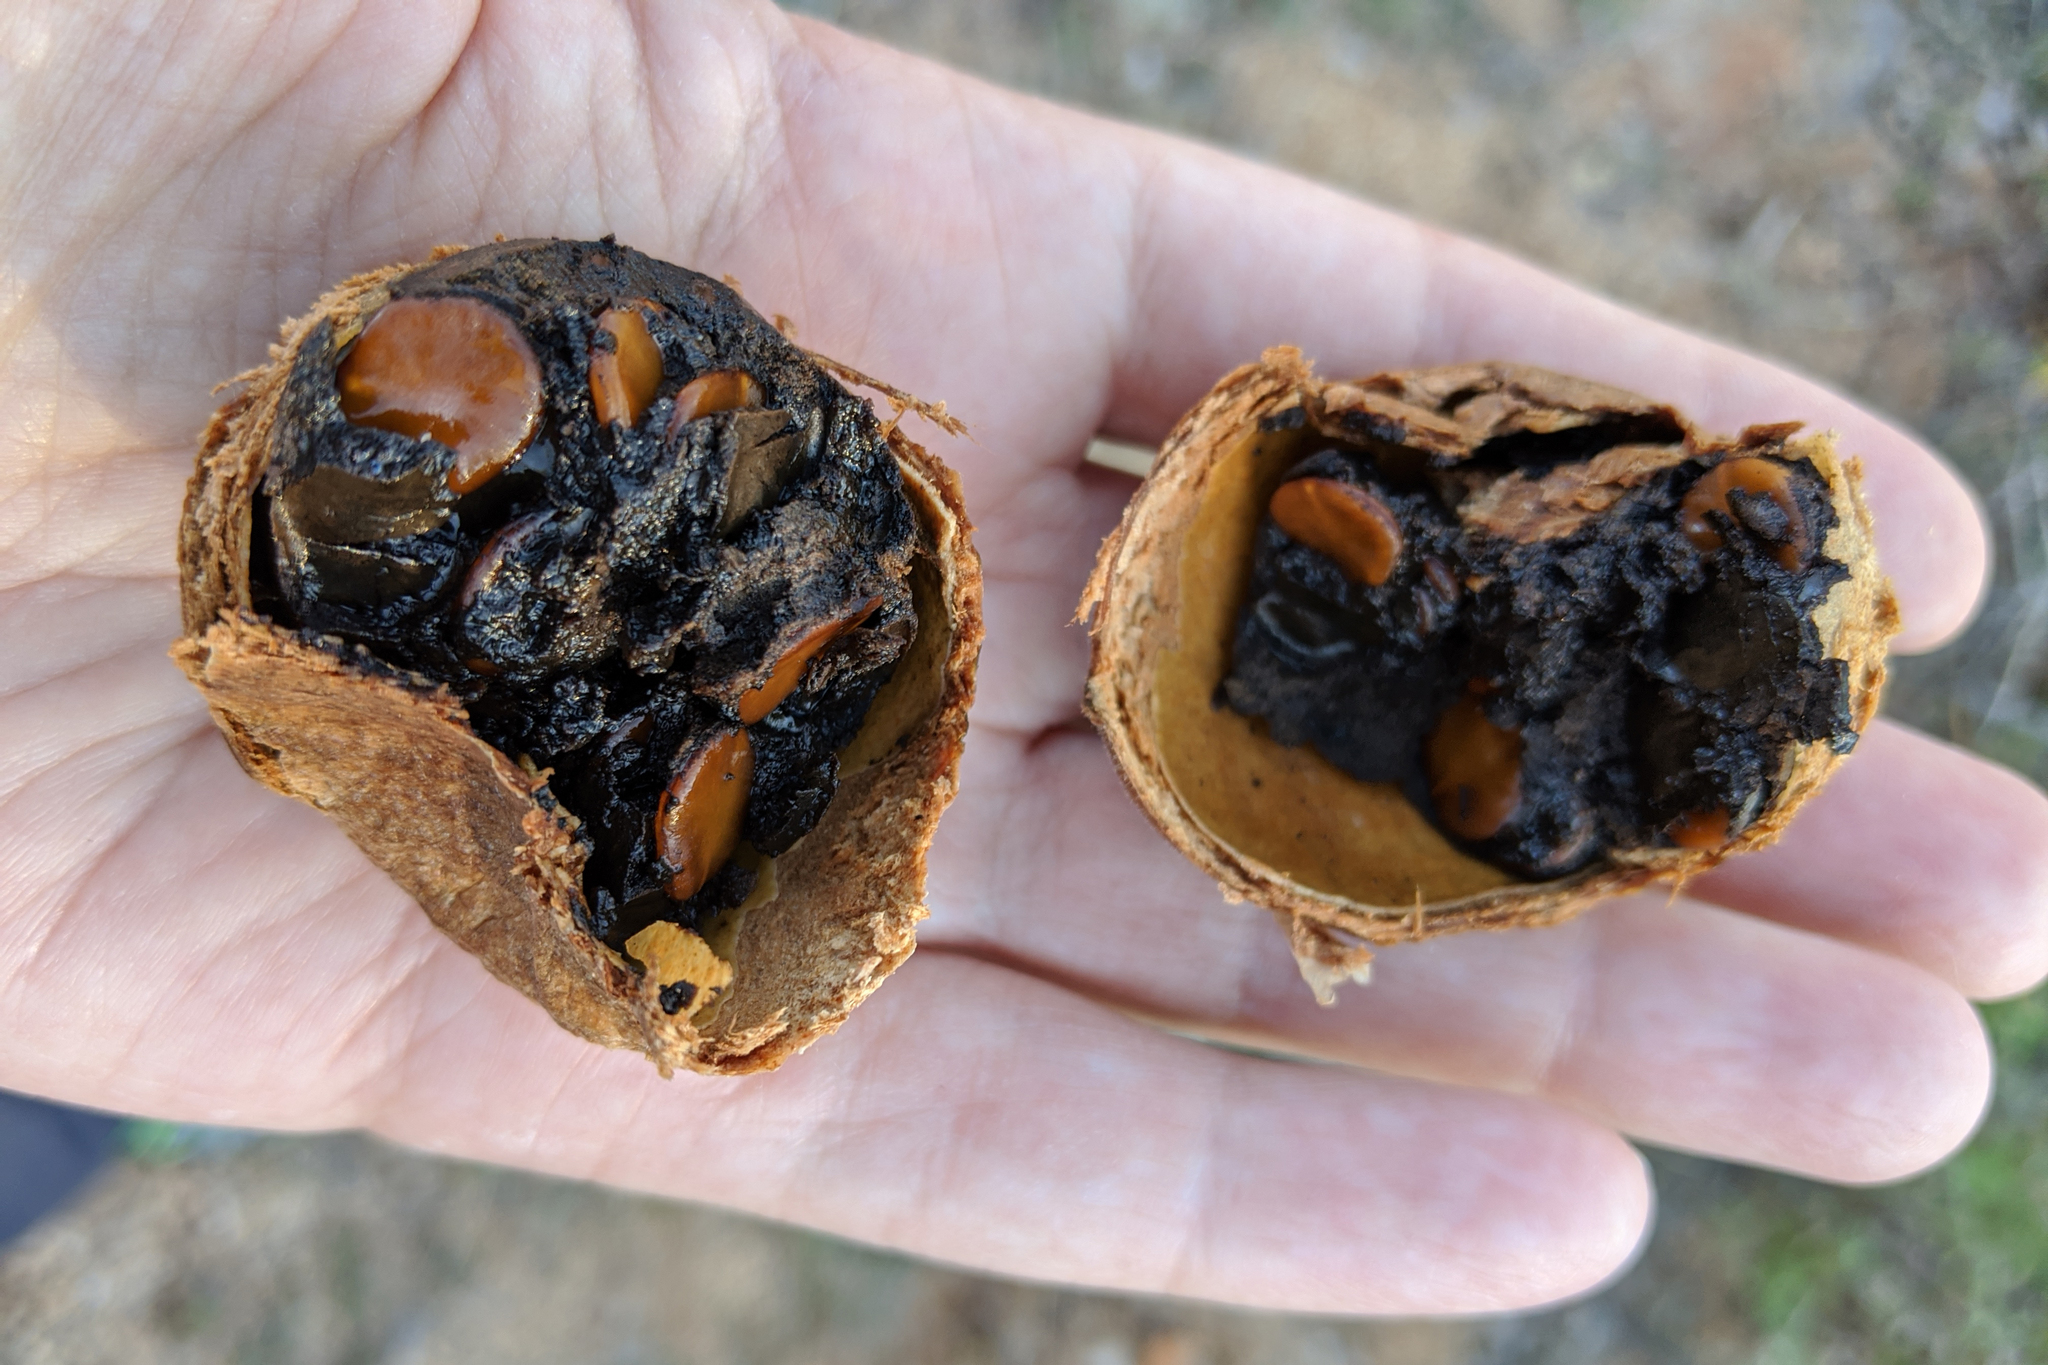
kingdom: Plantae
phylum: Tracheophyta
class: Magnoliopsida
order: Gentianales
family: Rubiaceae
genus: Randia
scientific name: Randia capitata
